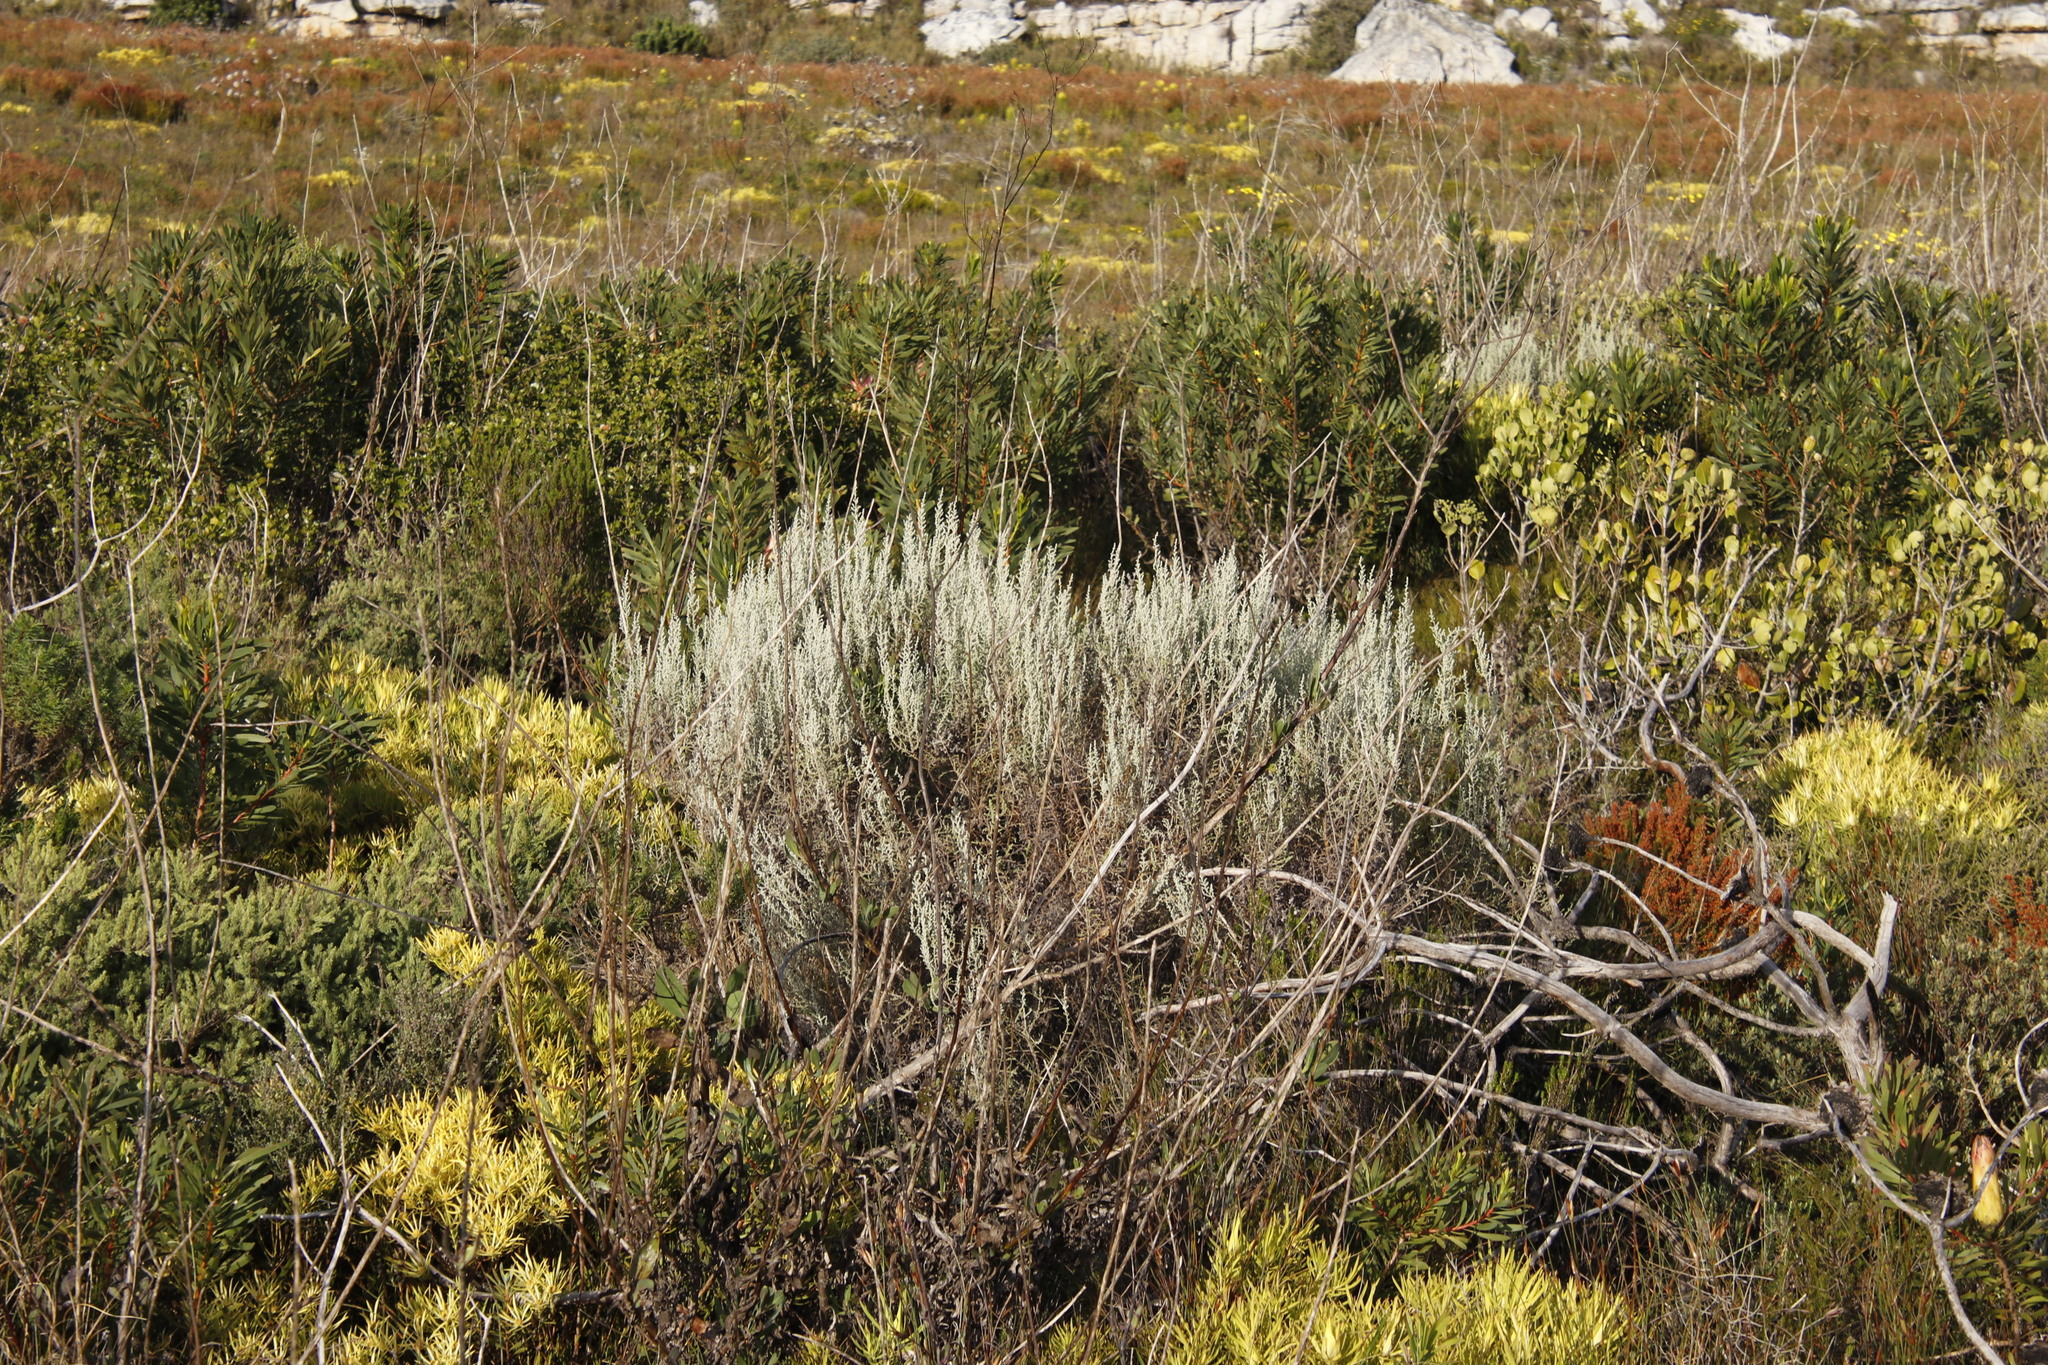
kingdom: Plantae
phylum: Tracheophyta
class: Magnoliopsida
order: Asterales
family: Asteraceae
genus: Seriphium
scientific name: Seriphium plumosum
